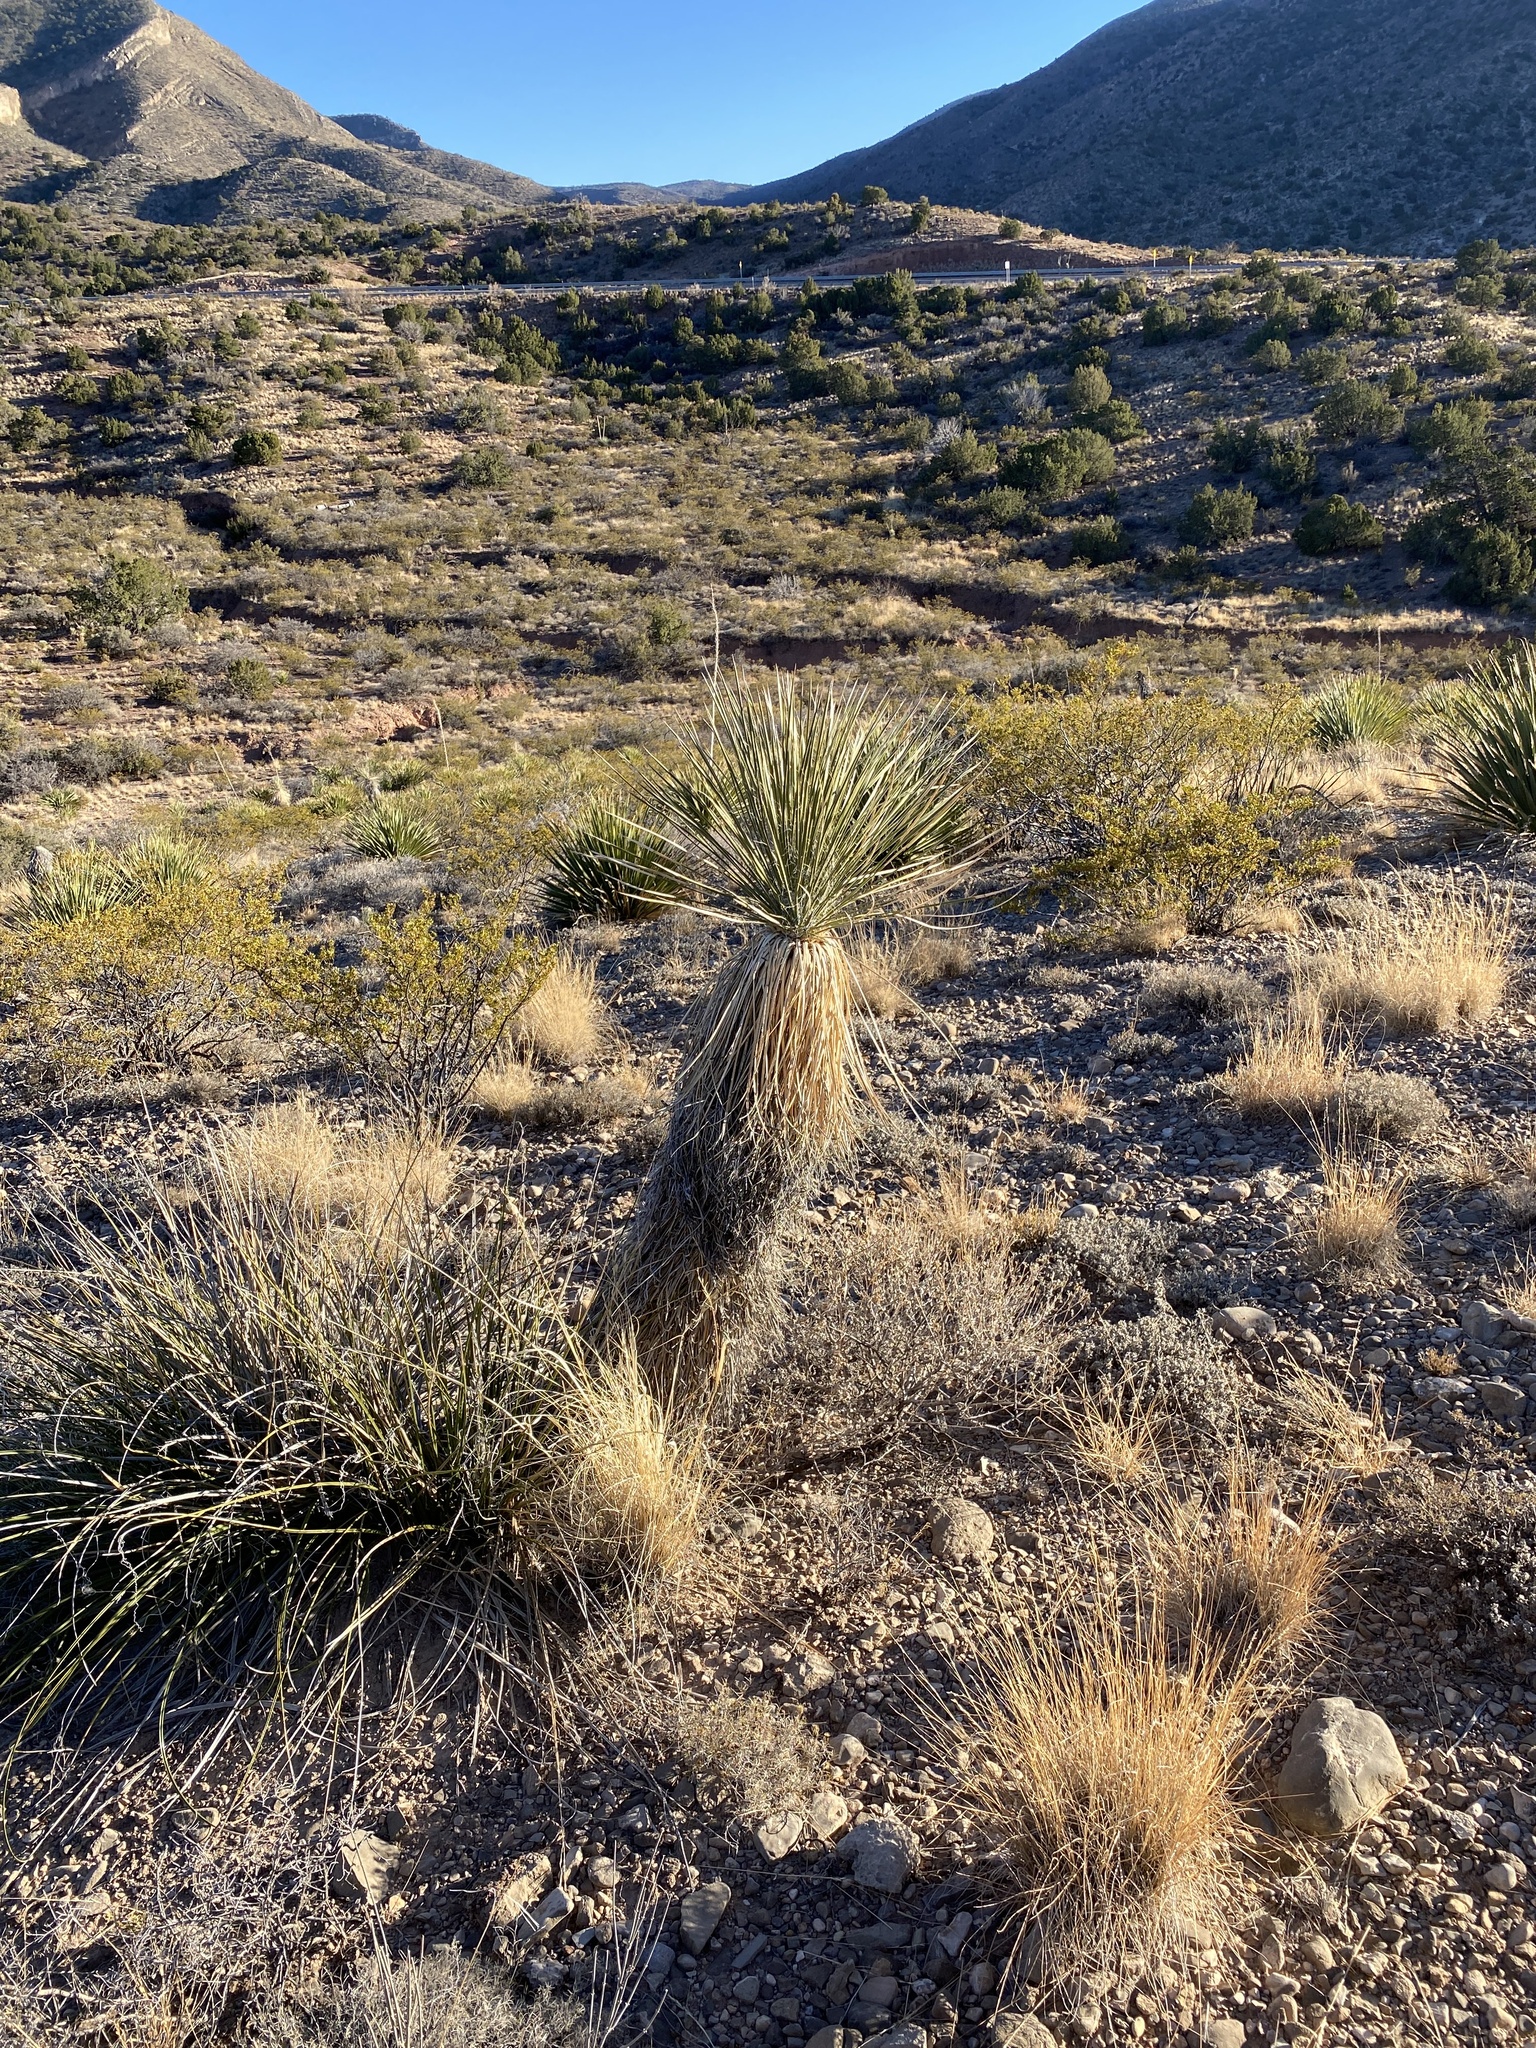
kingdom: Plantae
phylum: Tracheophyta
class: Liliopsida
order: Asparagales
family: Asparagaceae
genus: Yucca
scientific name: Yucca elata
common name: Palmella
